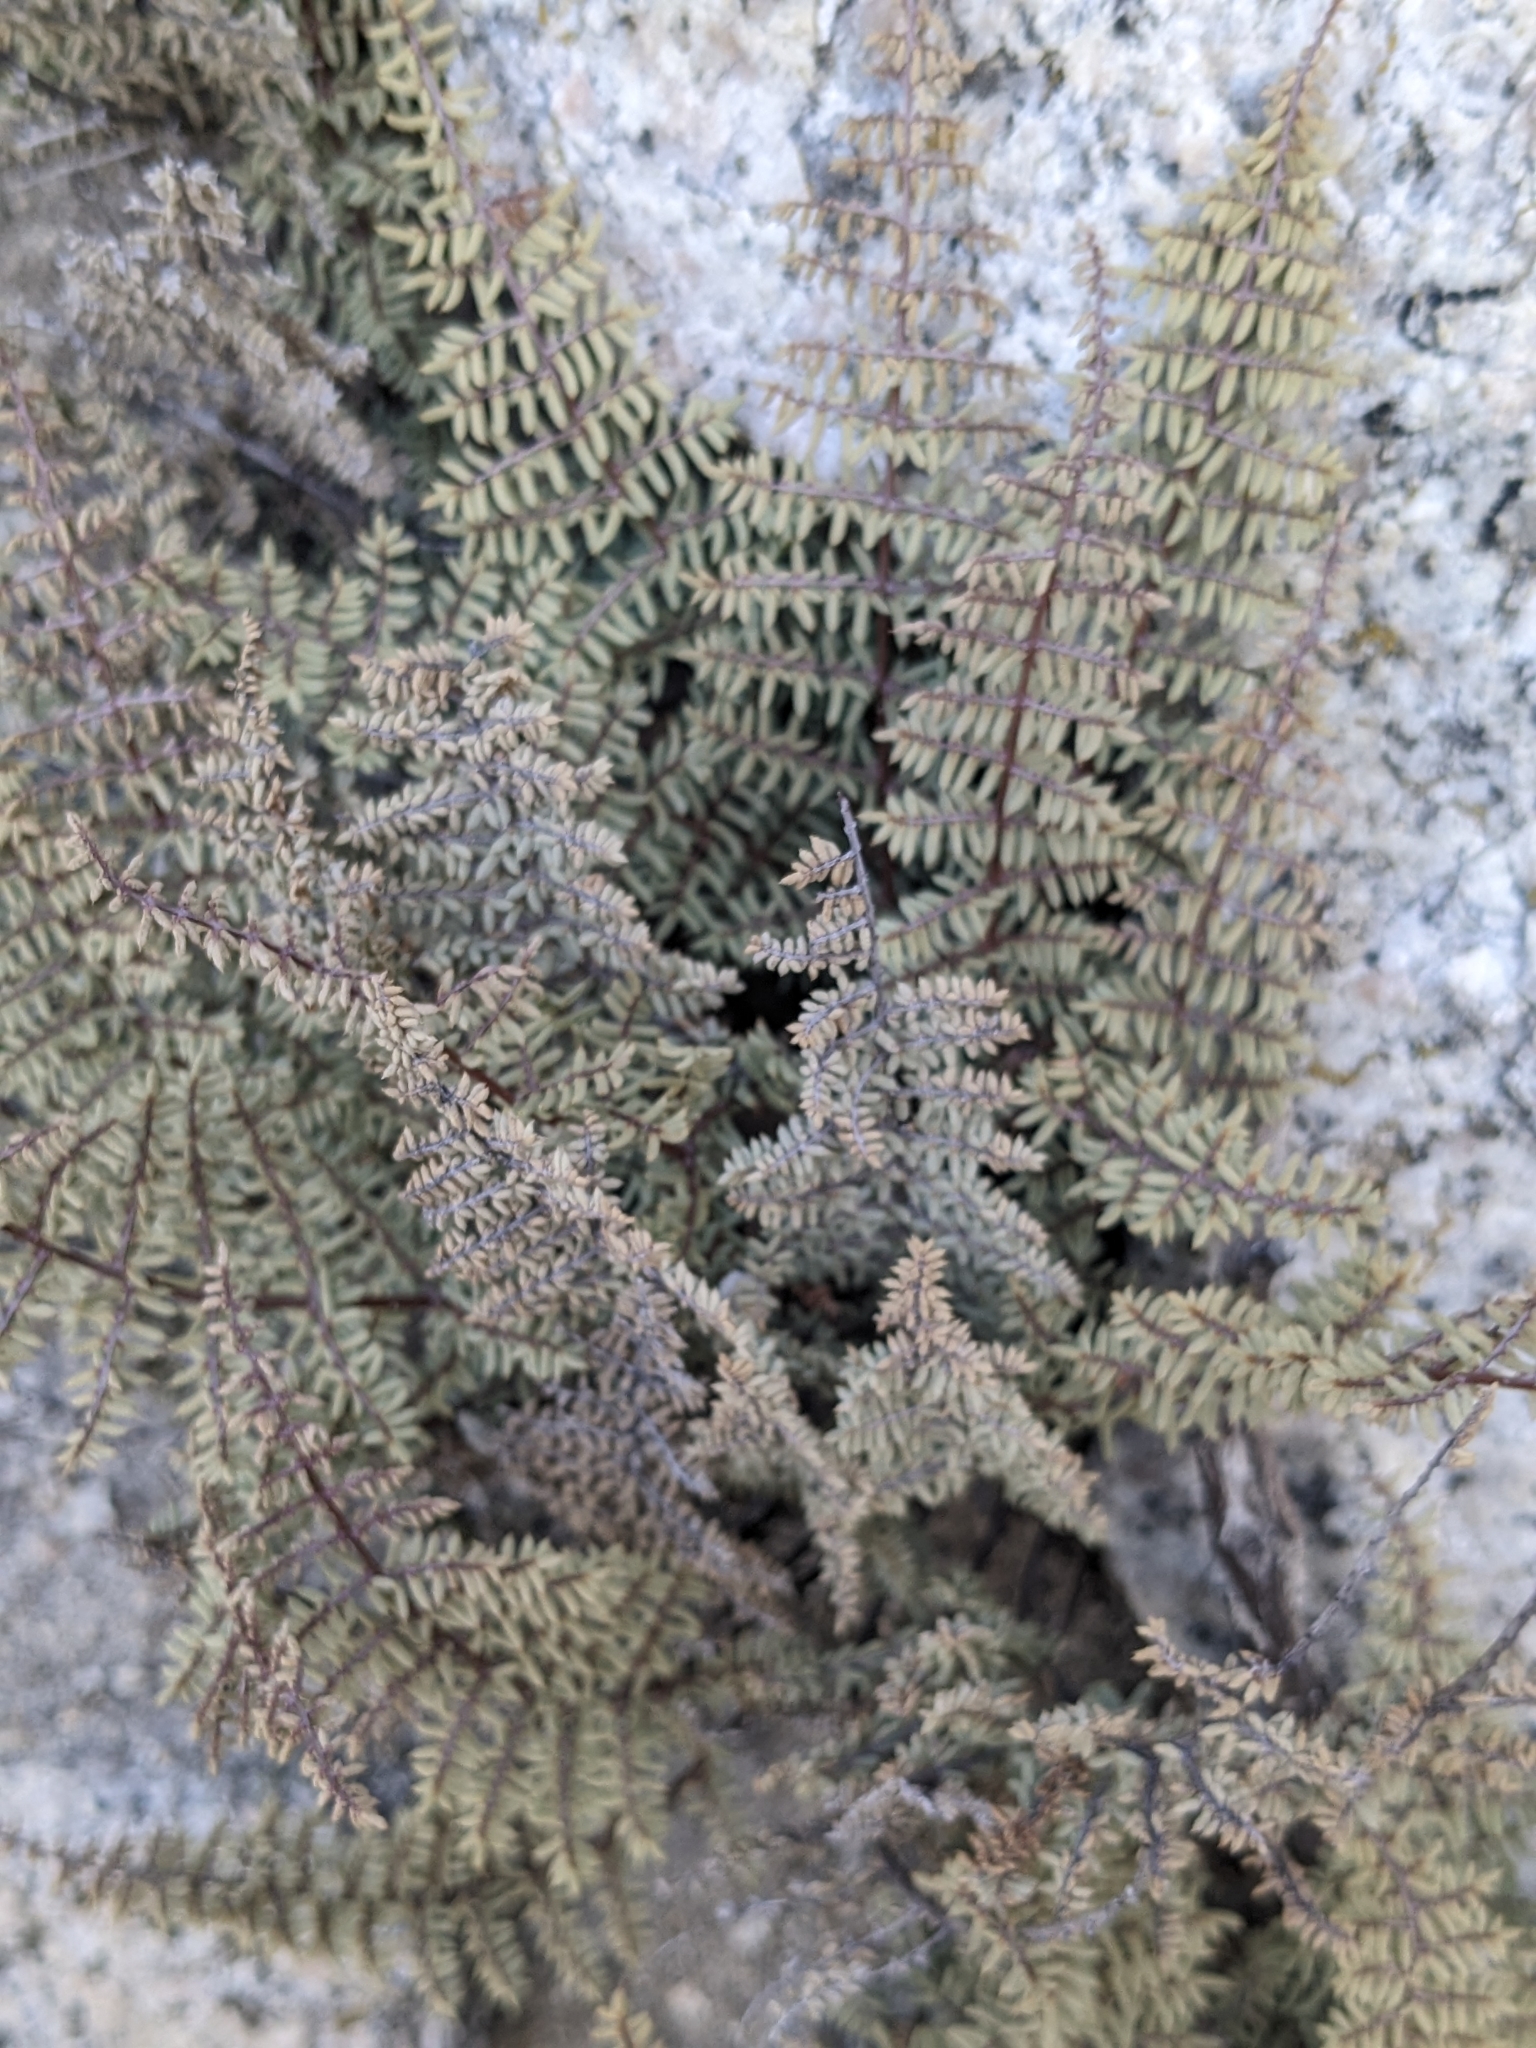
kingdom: Plantae
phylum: Tracheophyta
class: Polypodiopsida
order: Polypodiales
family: Pteridaceae
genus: Pellaea
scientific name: Pellaea mucronata
